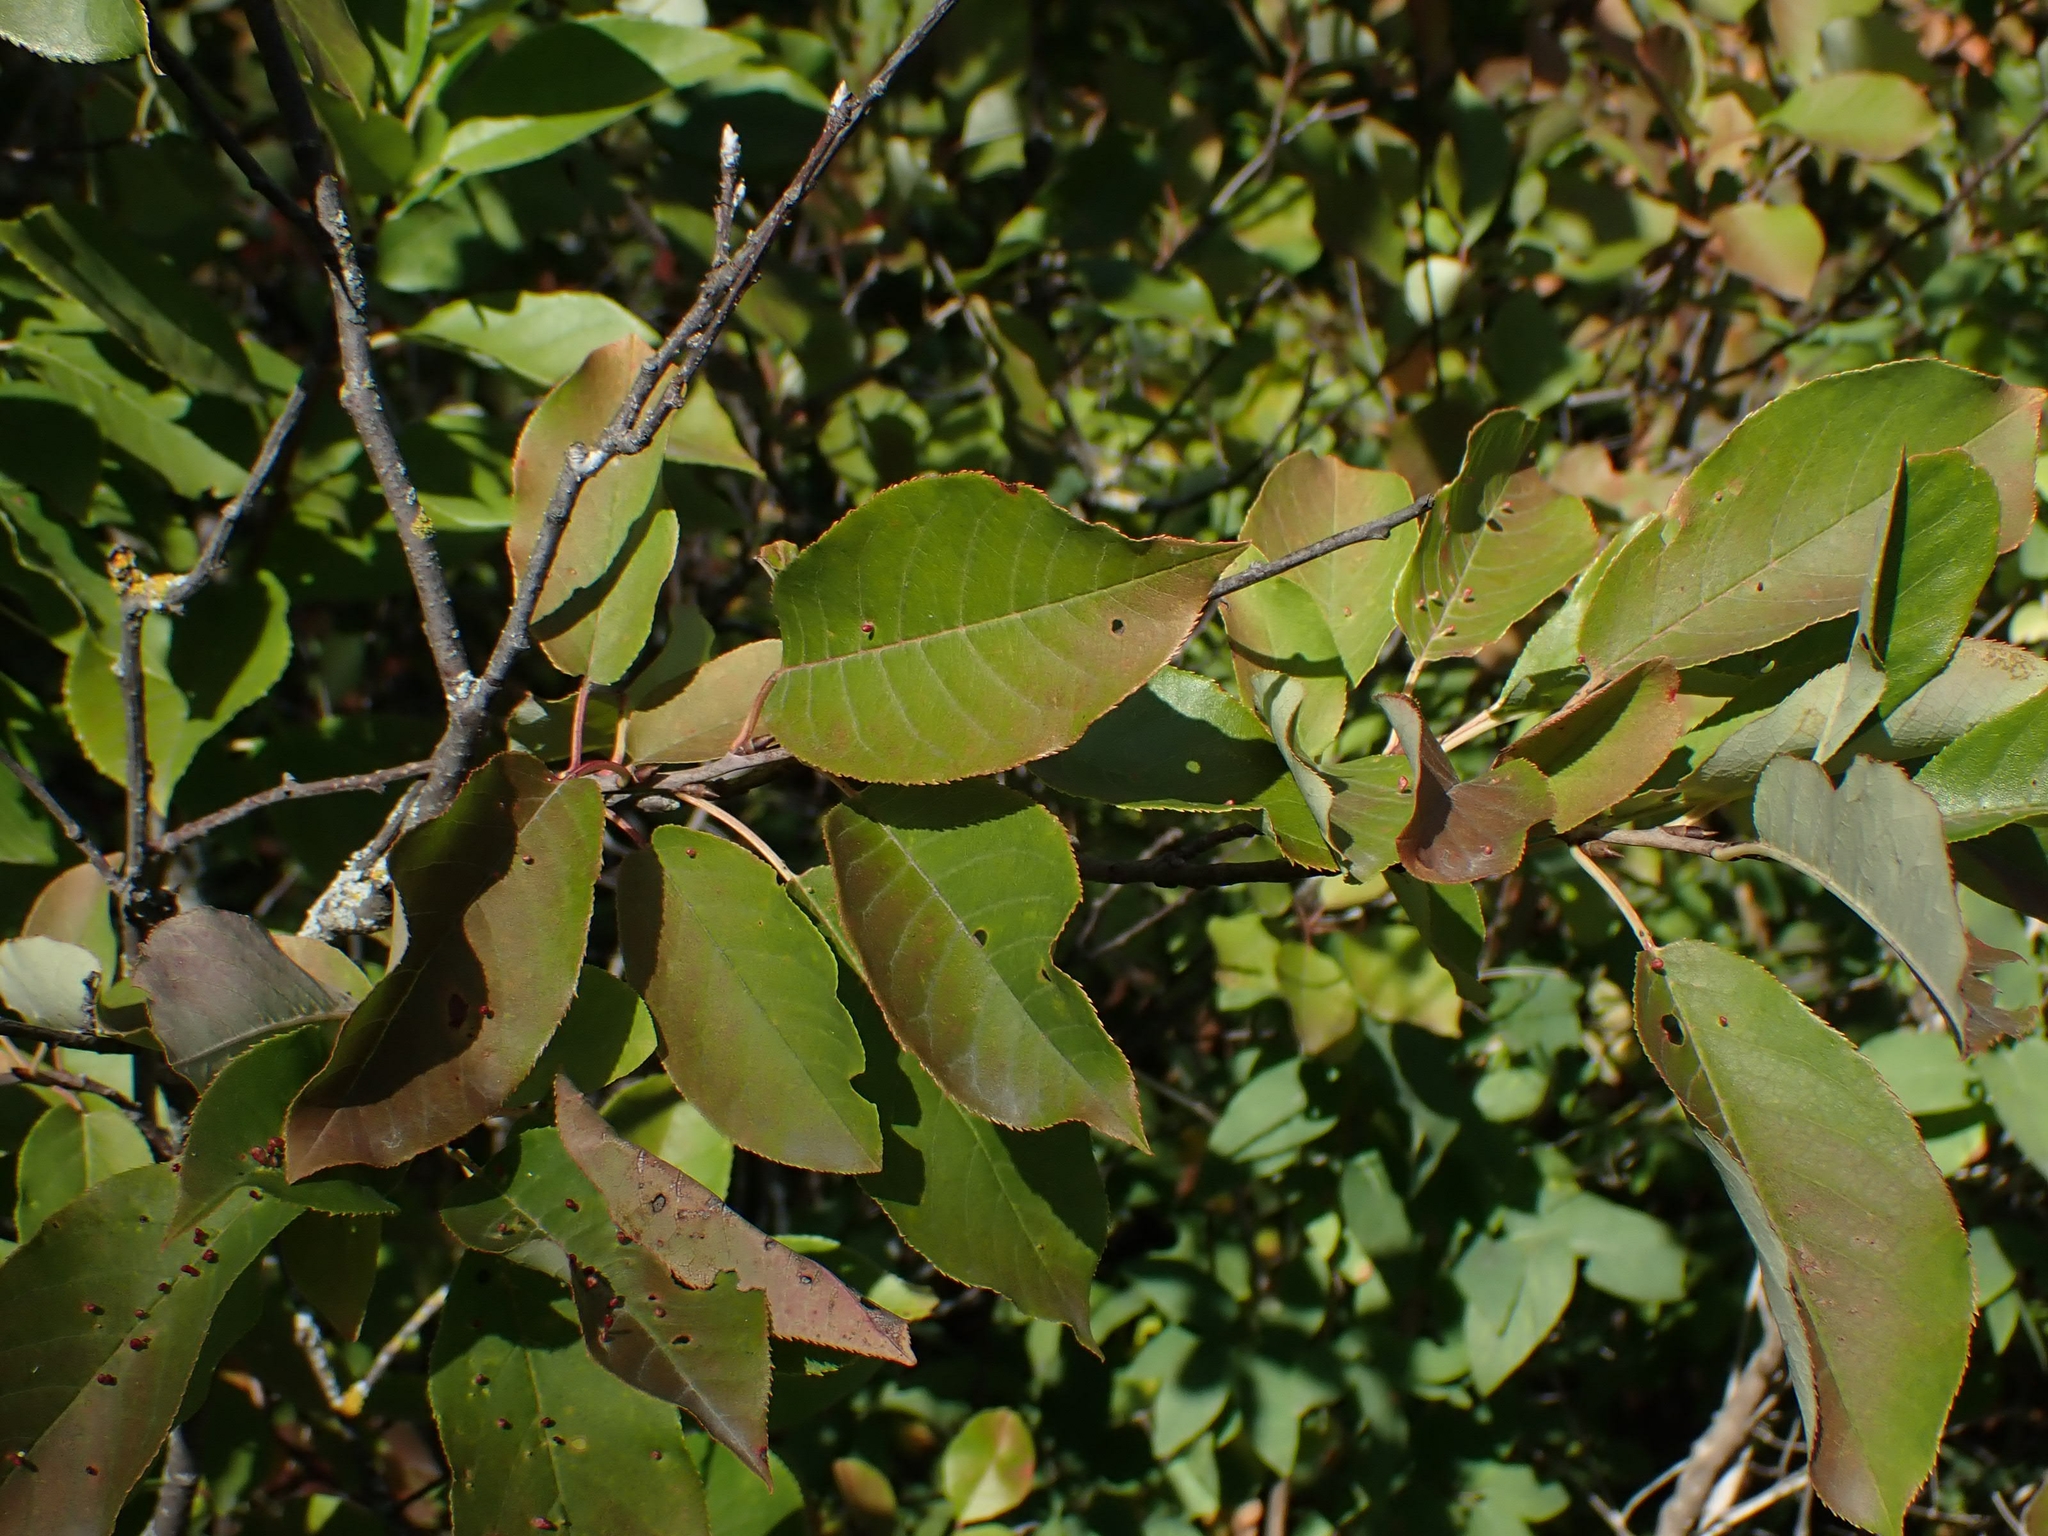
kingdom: Plantae
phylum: Tracheophyta
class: Magnoliopsida
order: Rosales
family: Rosaceae
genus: Prunus
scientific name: Prunus virginiana
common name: Chokecherry
